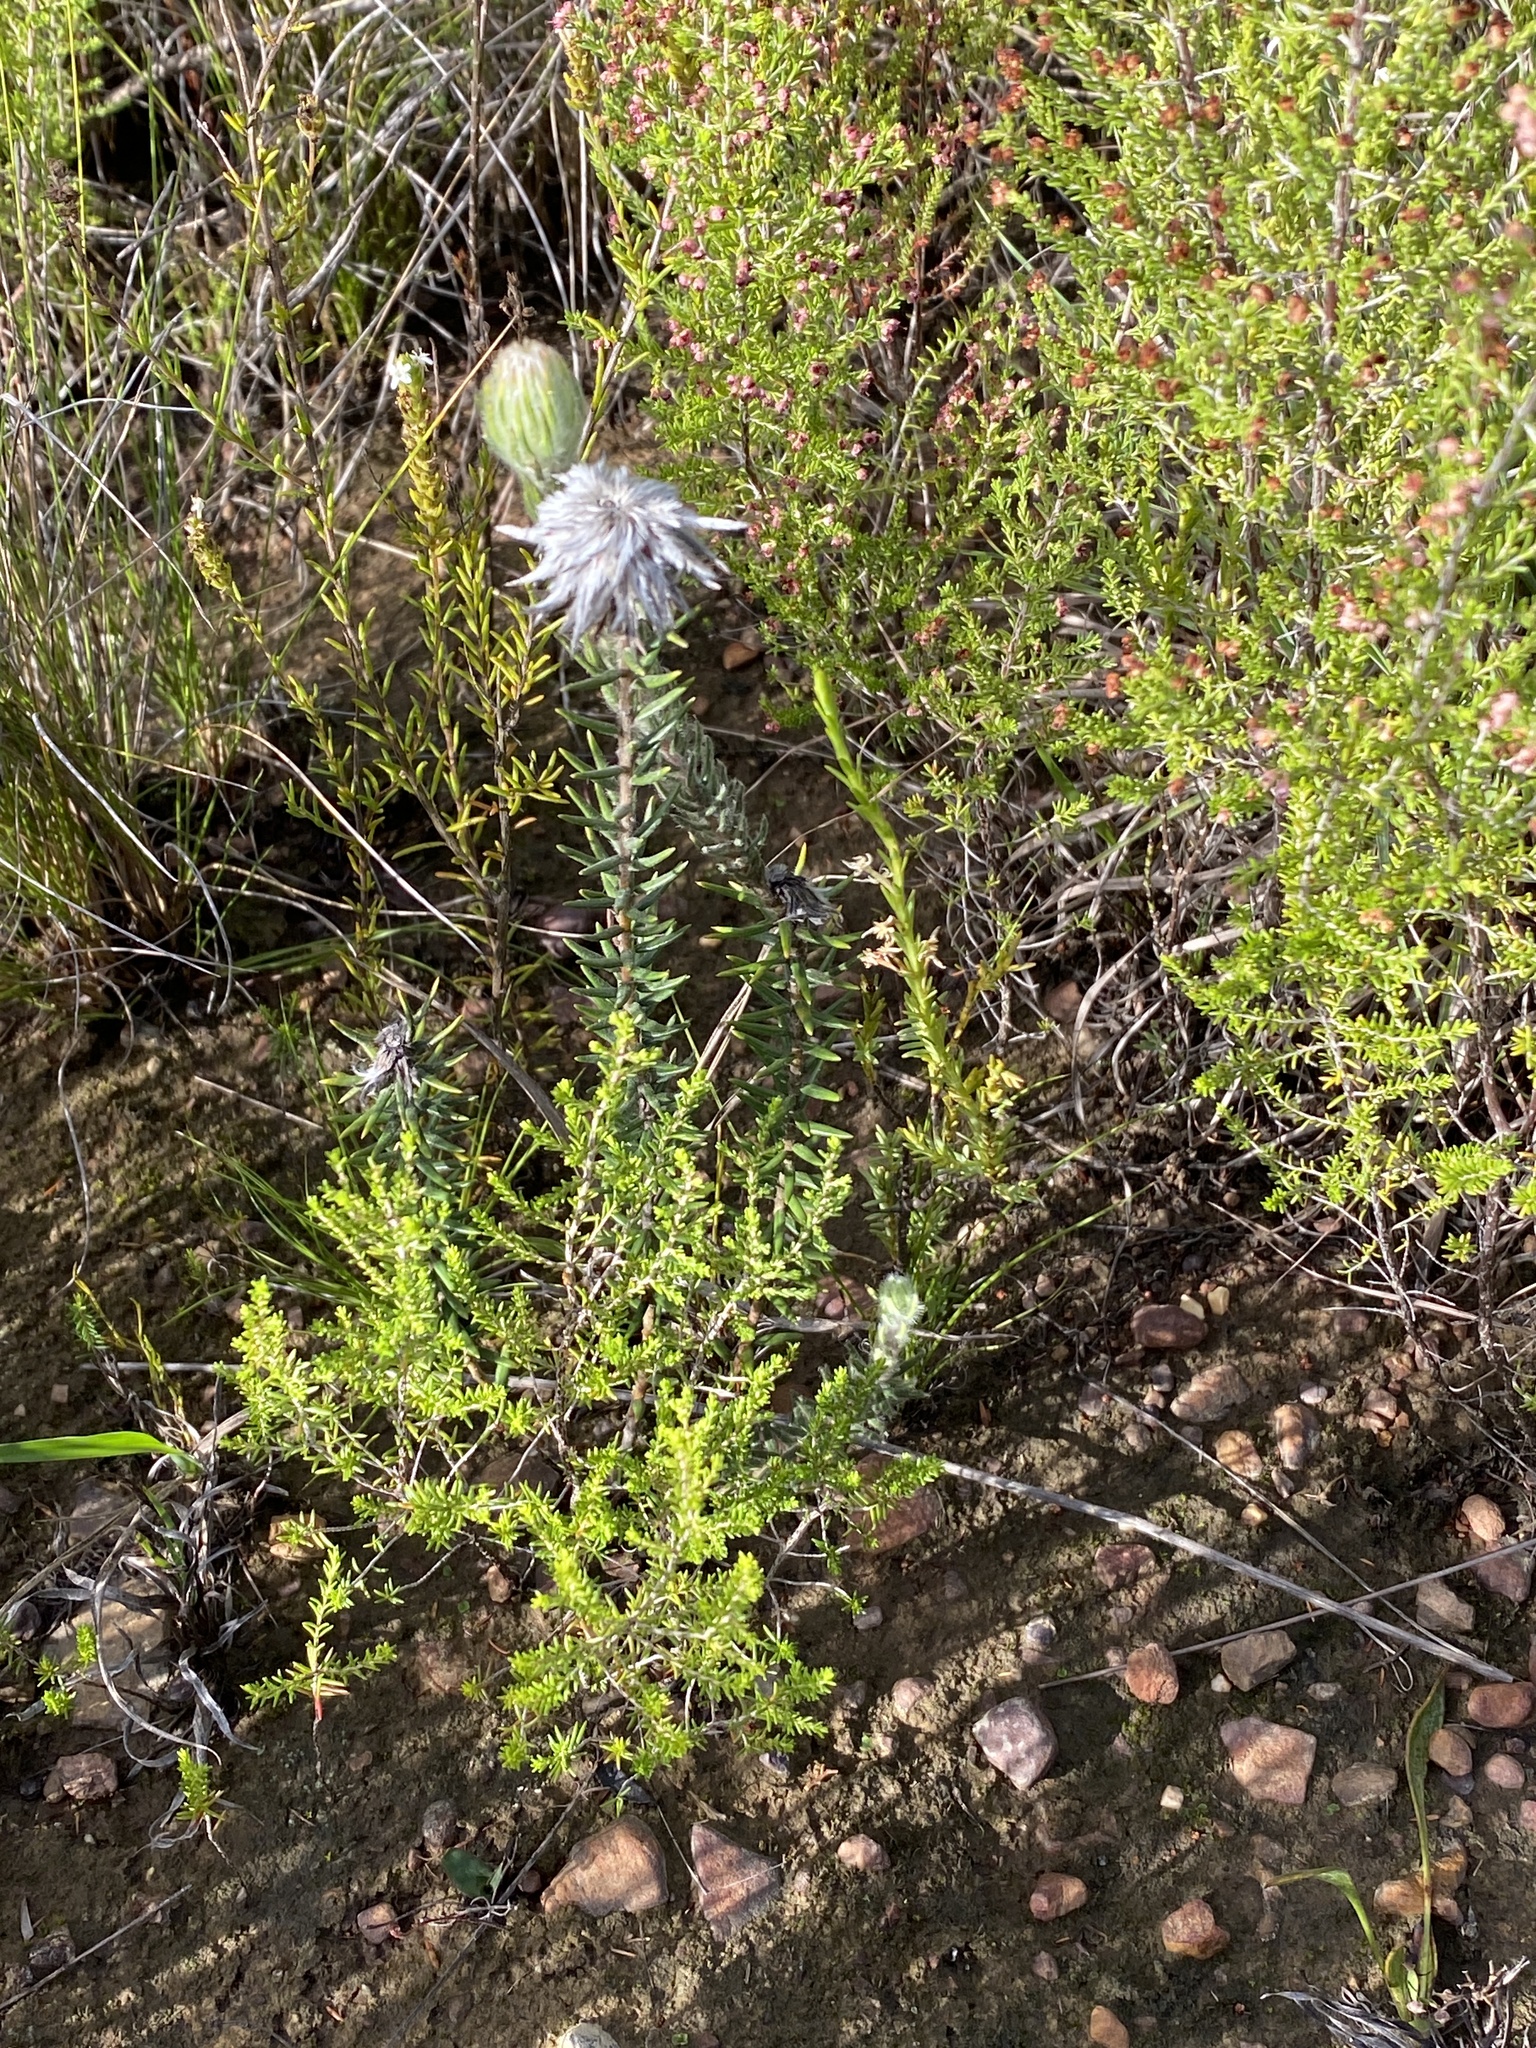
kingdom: Plantae
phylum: Tracheophyta
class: Magnoliopsida
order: Rosales
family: Rhamnaceae
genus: Phylica
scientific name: Phylica calcarata
